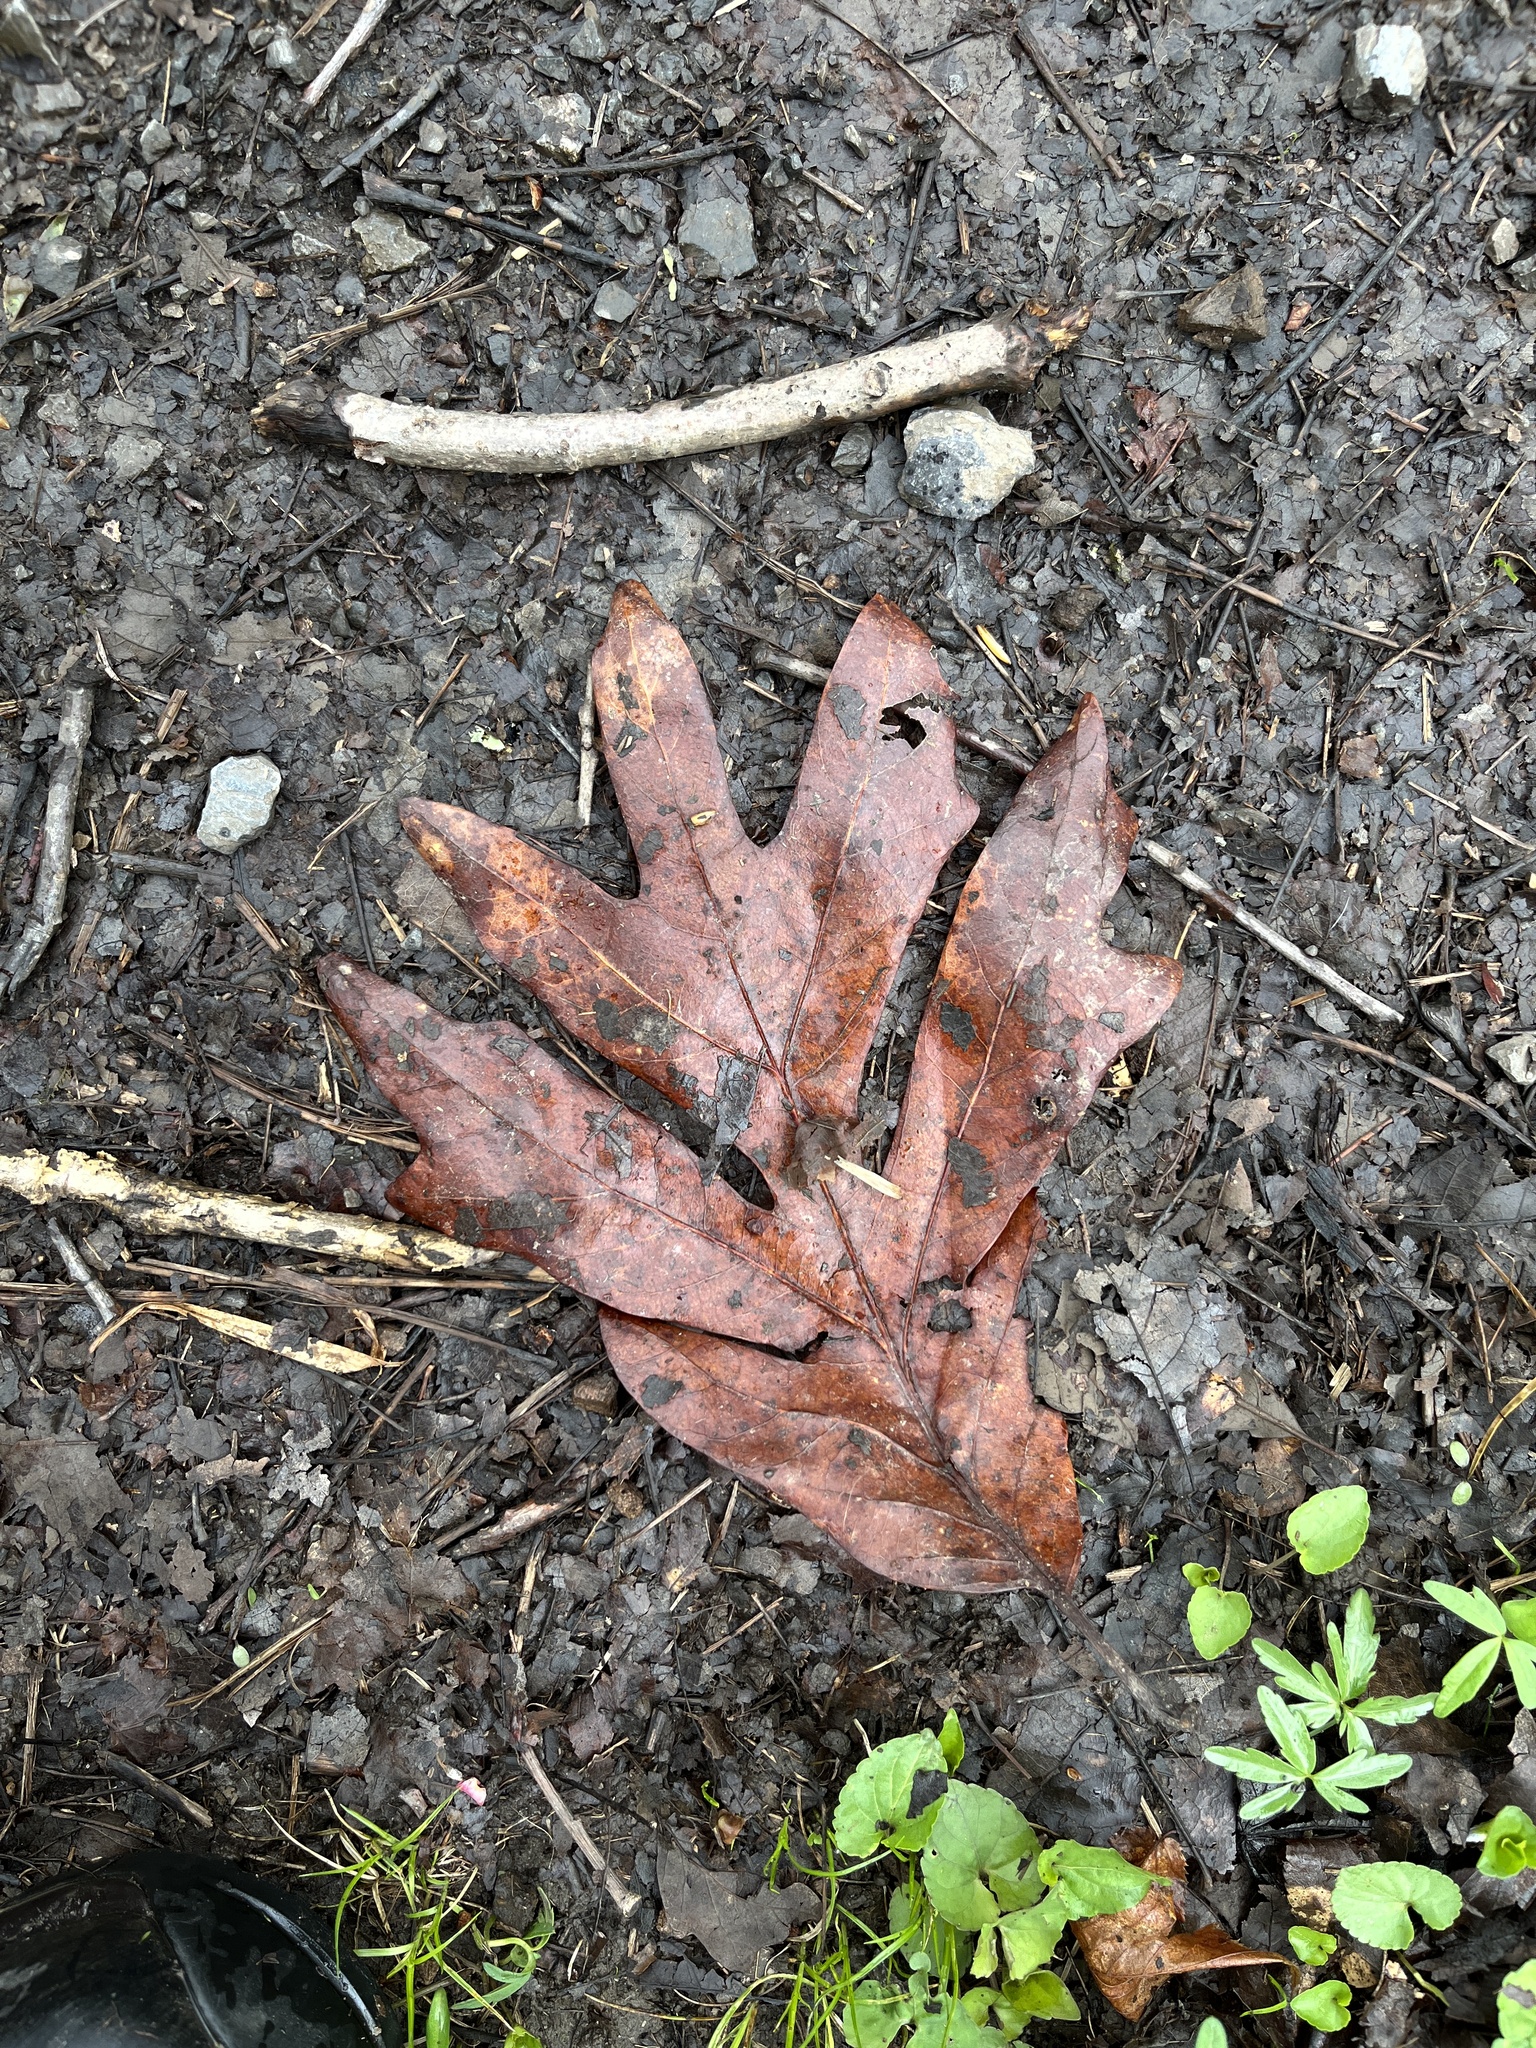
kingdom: Plantae
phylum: Tracheophyta
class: Magnoliopsida
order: Fagales
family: Fagaceae
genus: Quercus
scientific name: Quercus alba
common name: White oak
